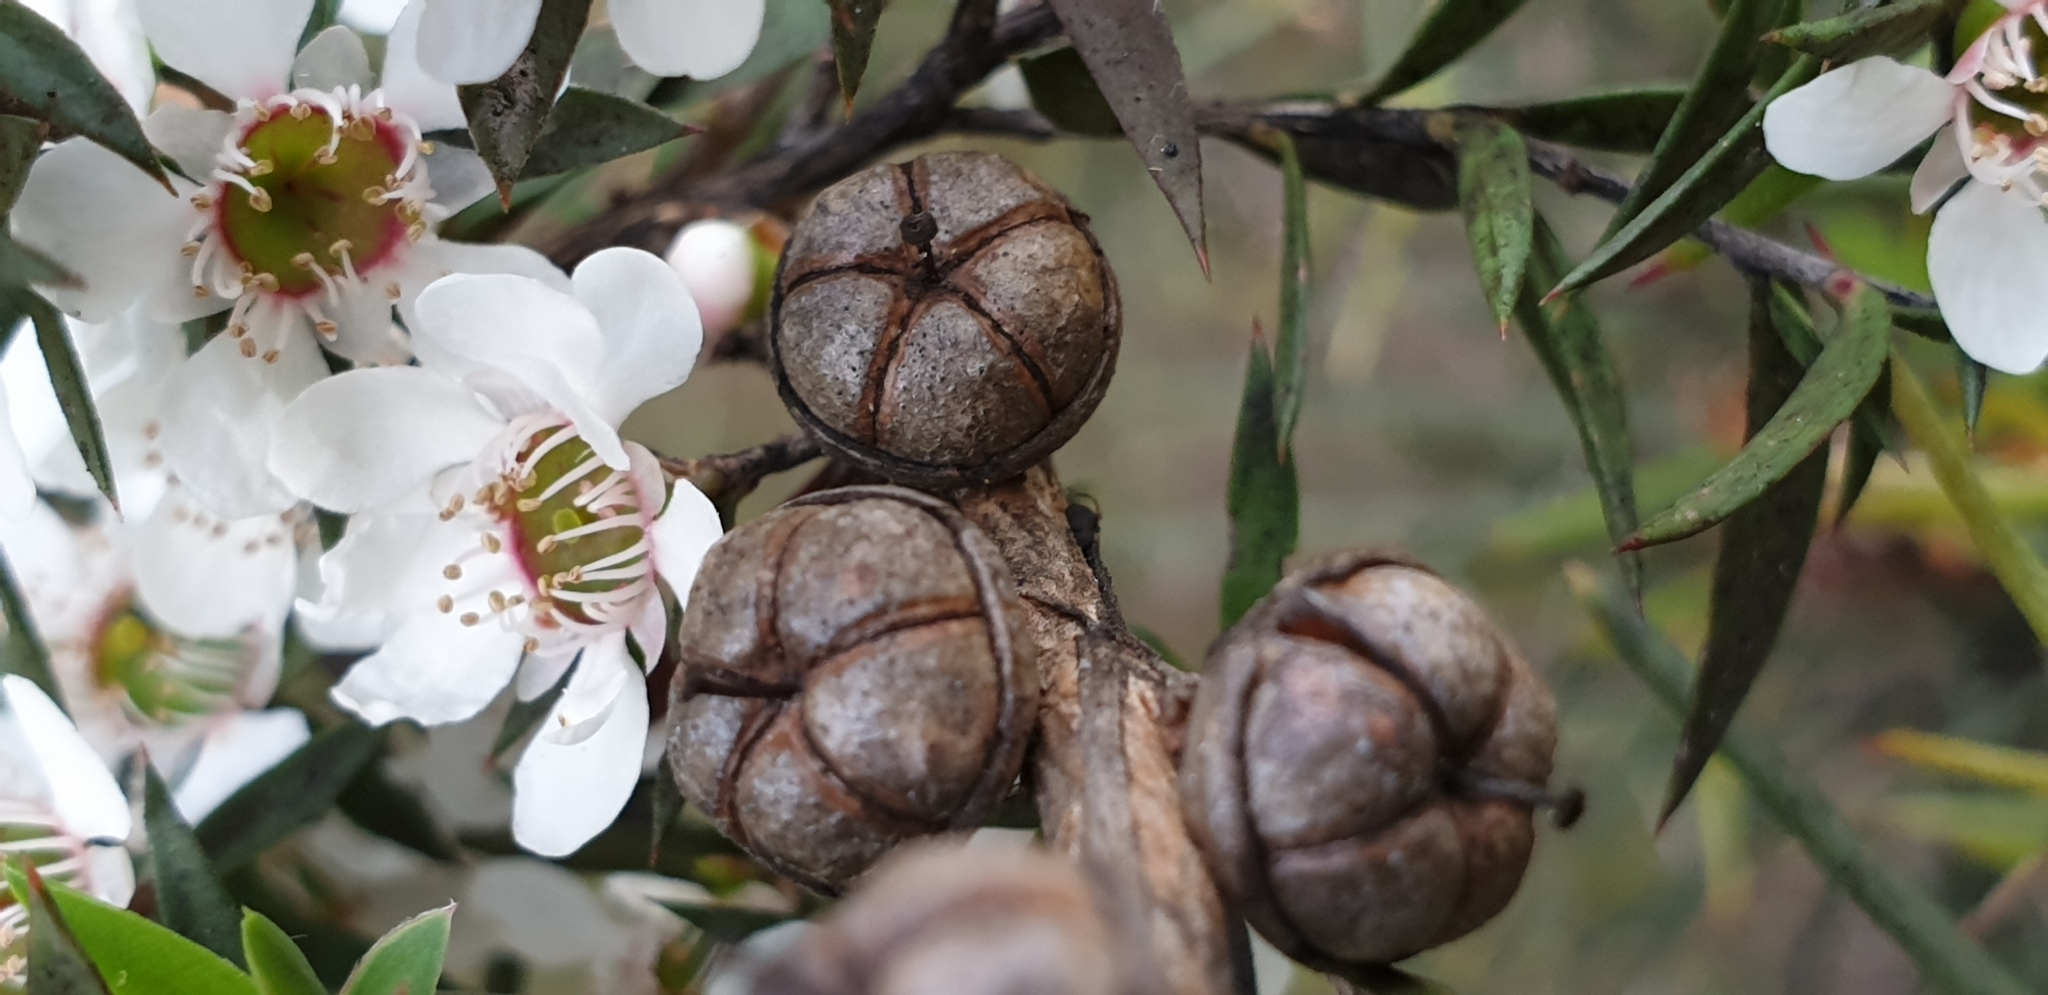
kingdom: Plantae
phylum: Tracheophyta
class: Magnoliopsida
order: Myrtales
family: Myrtaceae
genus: Leptospermum
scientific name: Leptospermum myrsinoides
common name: Heath teatree
